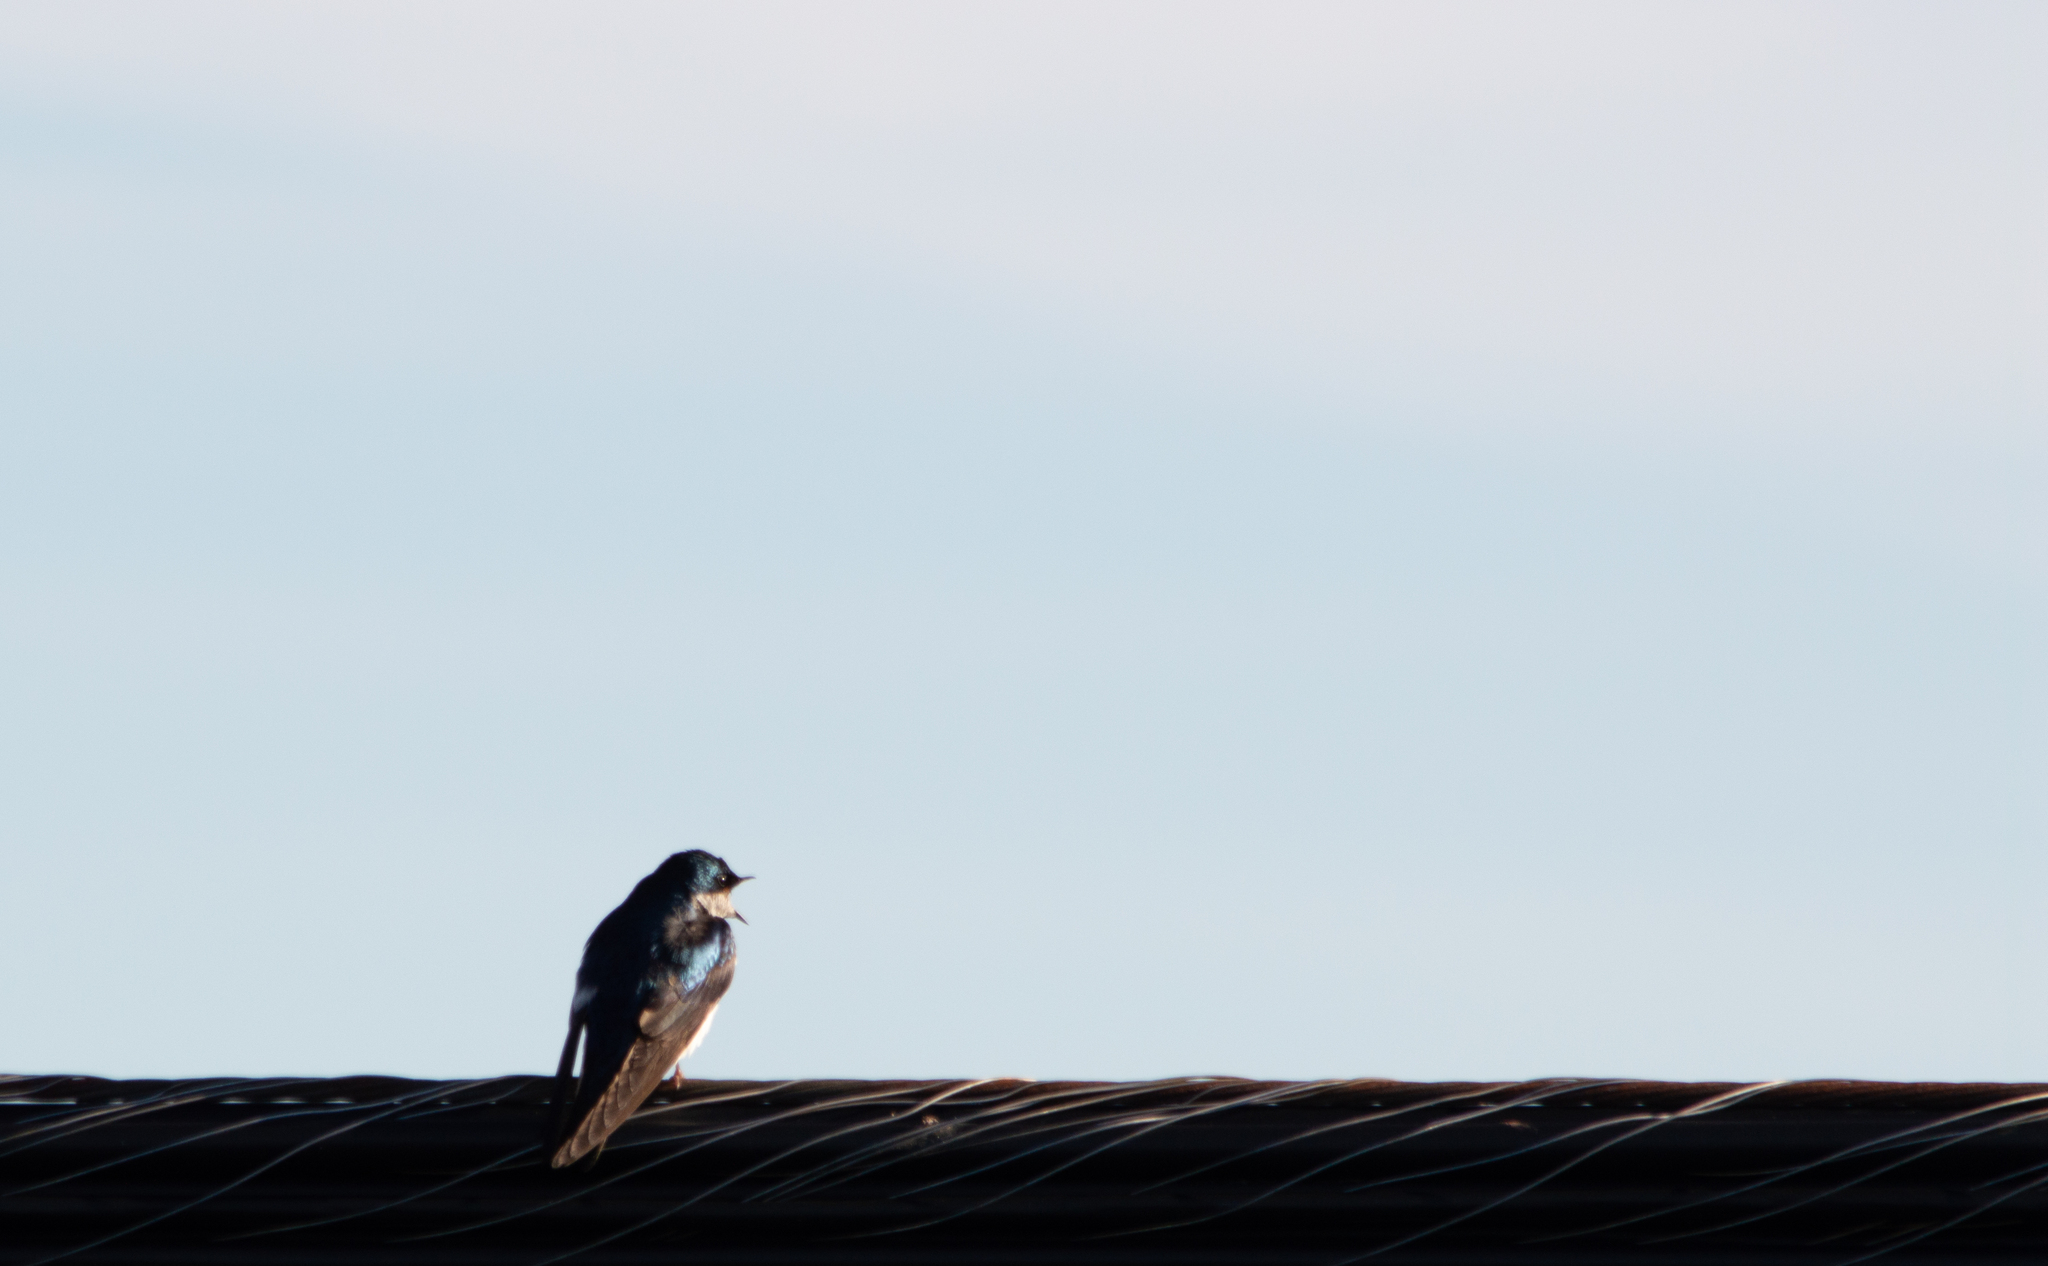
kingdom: Animalia
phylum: Chordata
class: Aves
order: Passeriformes
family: Hirundinidae
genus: Tachycineta
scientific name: Tachycineta bicolor
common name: Tree swallow
